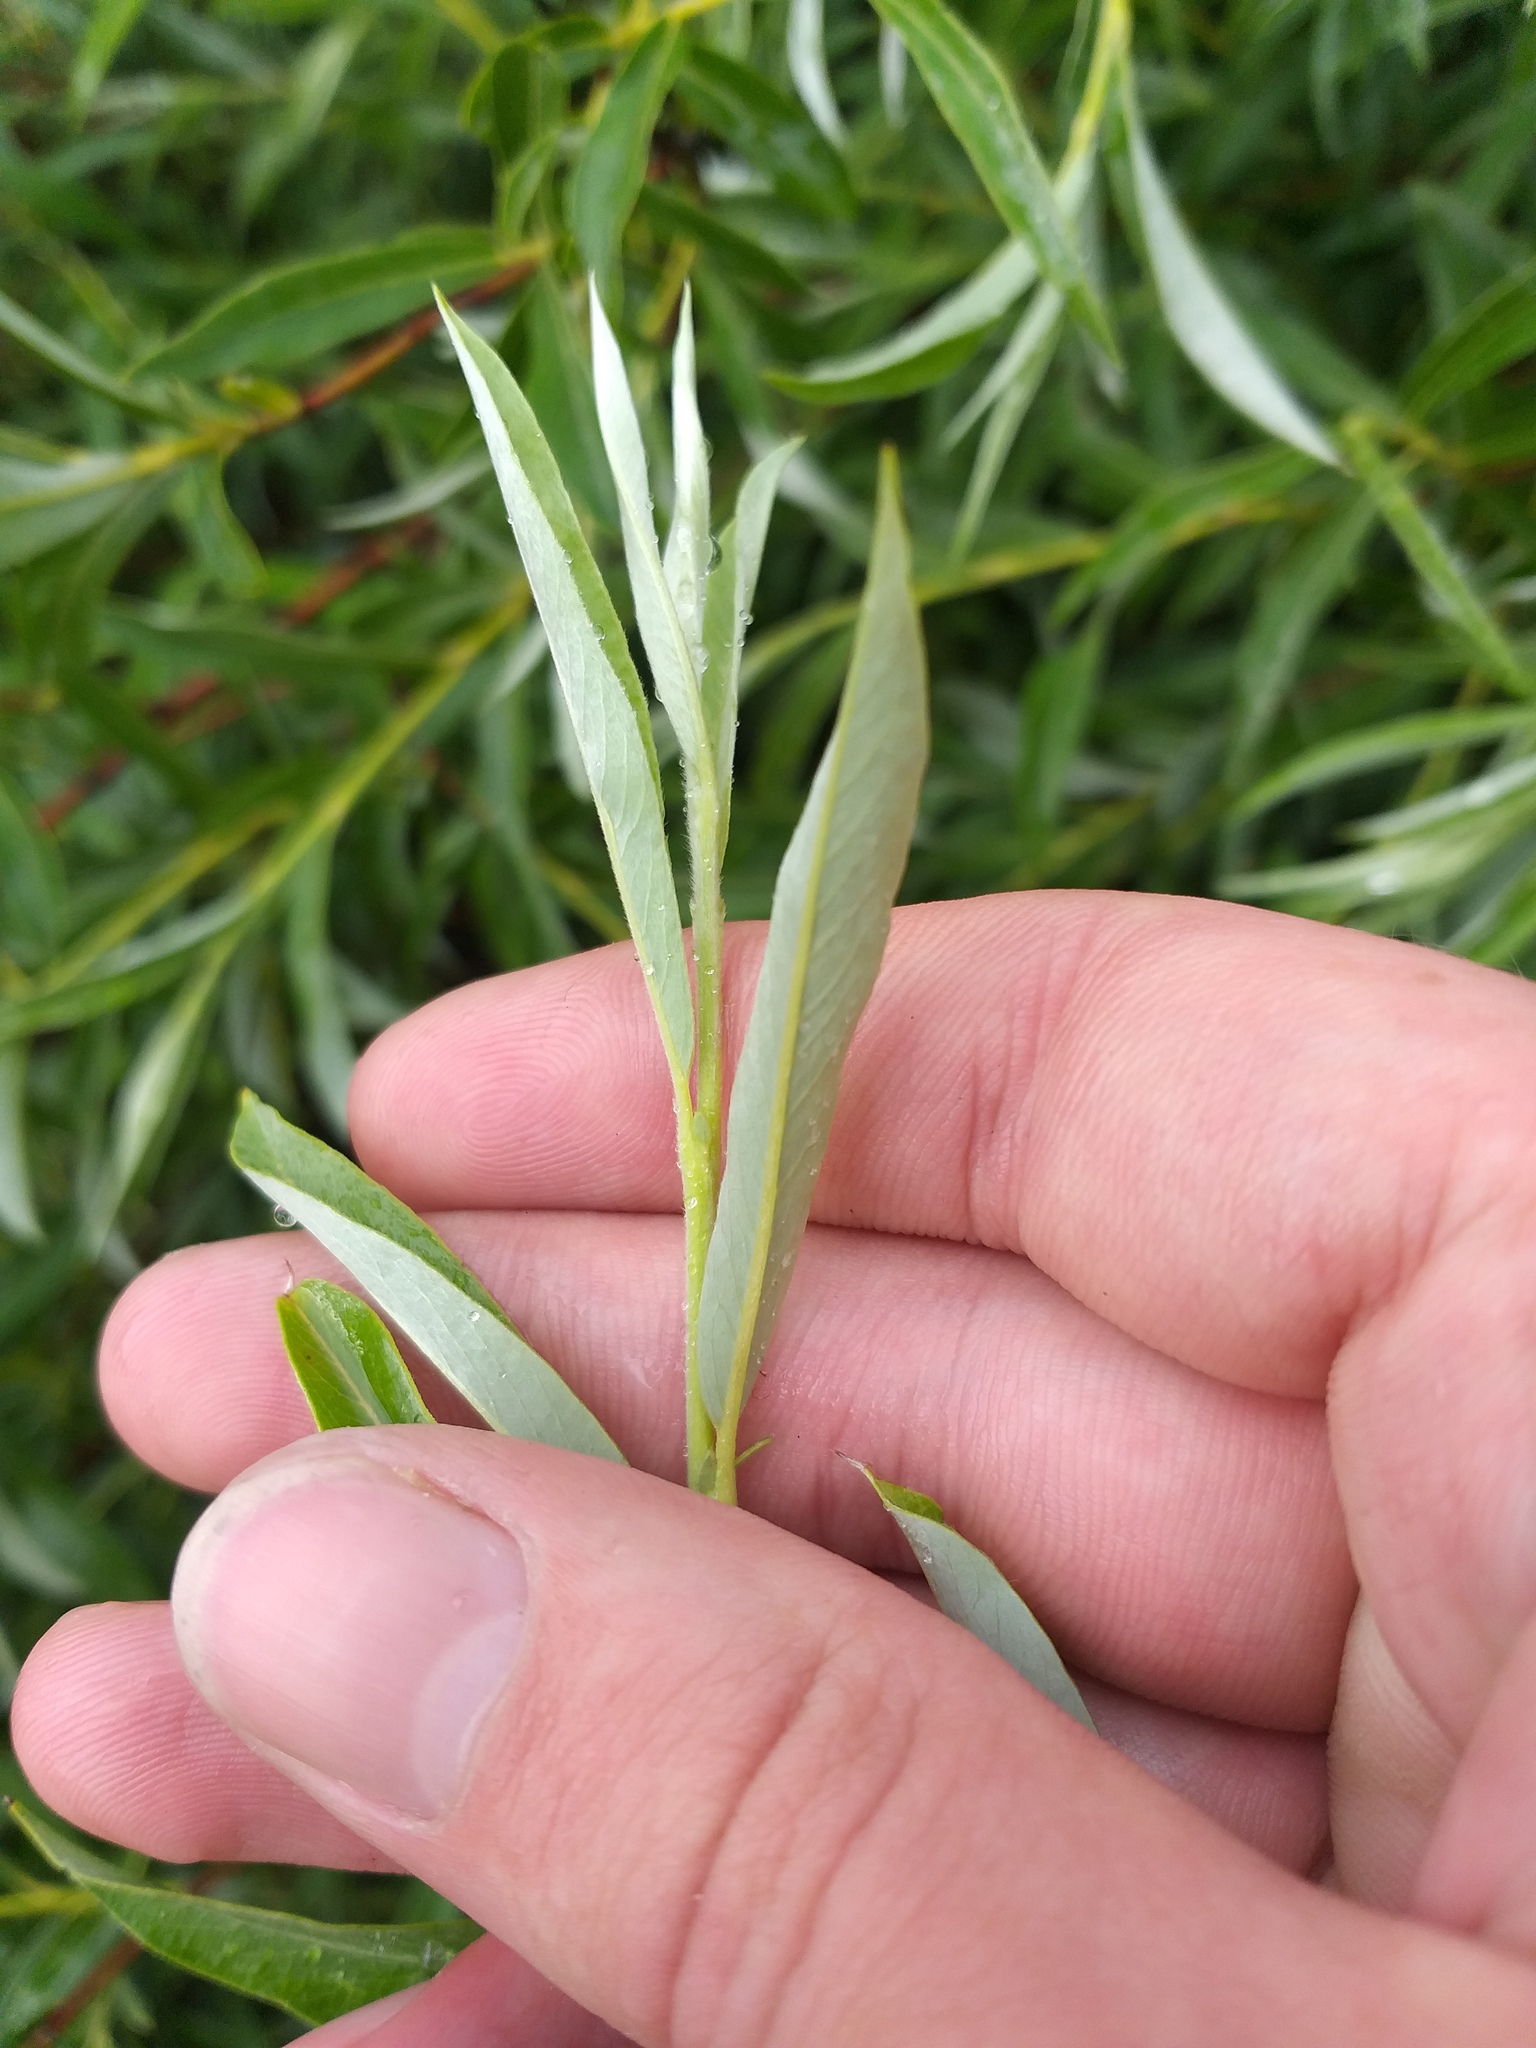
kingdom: Plantae
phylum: Tracheophyta
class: Magnoliopsida
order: Malpighiales
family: Salicaceae
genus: Salix
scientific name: Salix rosmarinifolia
